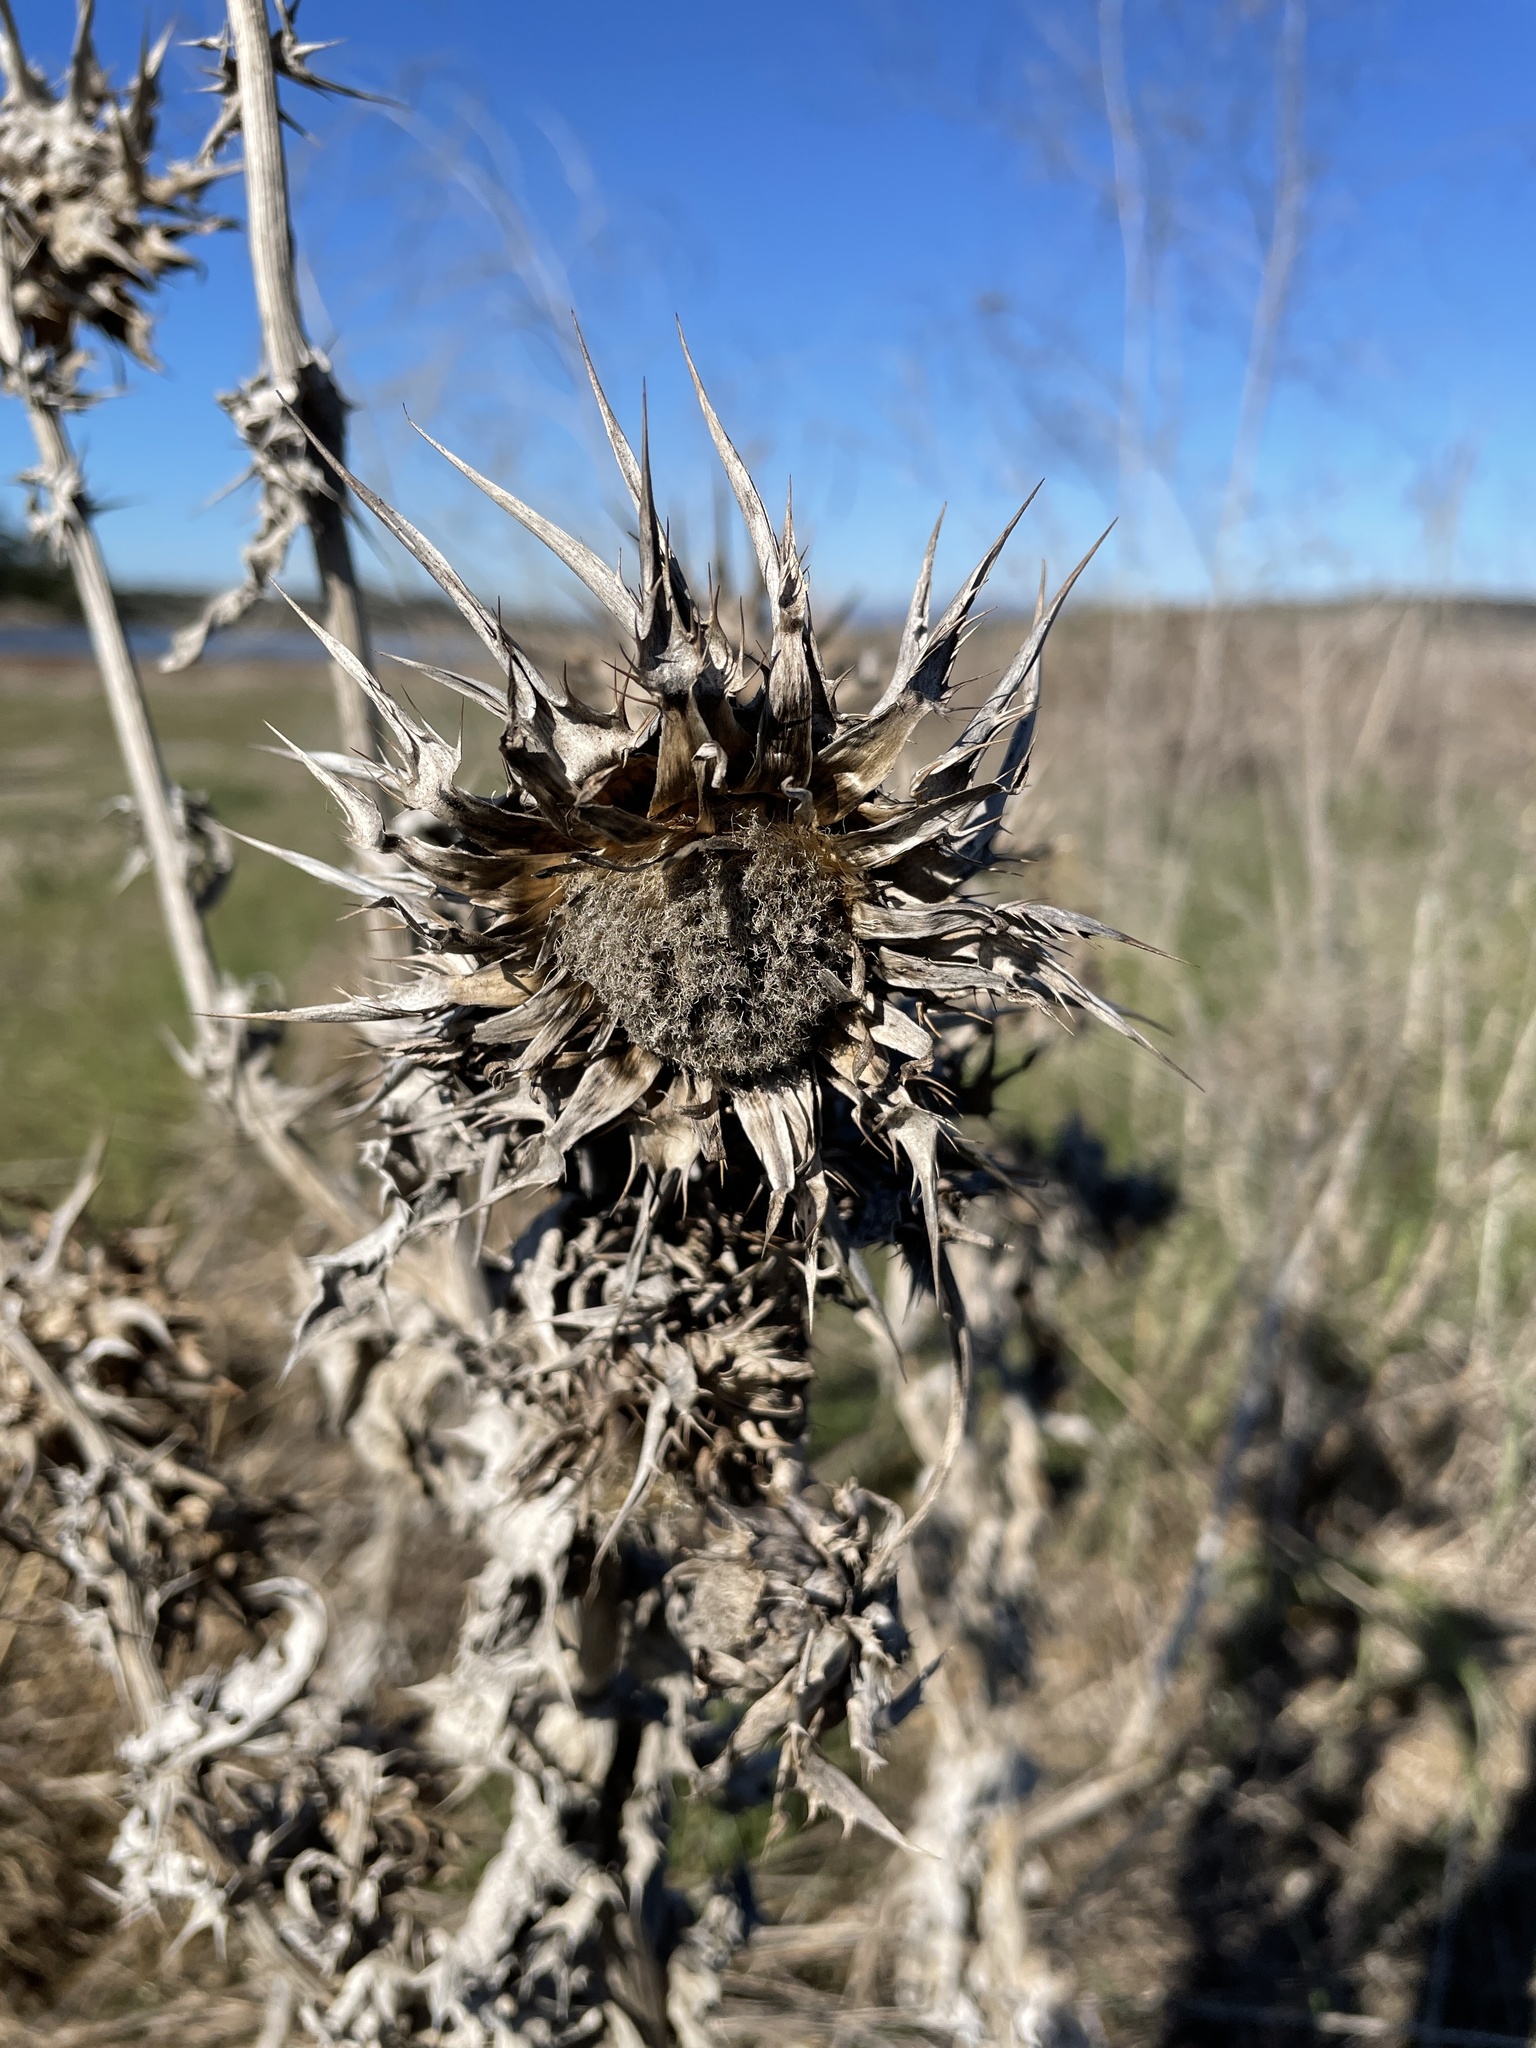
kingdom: Plantae
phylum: Tracheophyta
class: Magnoliopsida
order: Asterales
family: Asteraceae
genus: Silybum
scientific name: Silybum marianum
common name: Milk thistle
